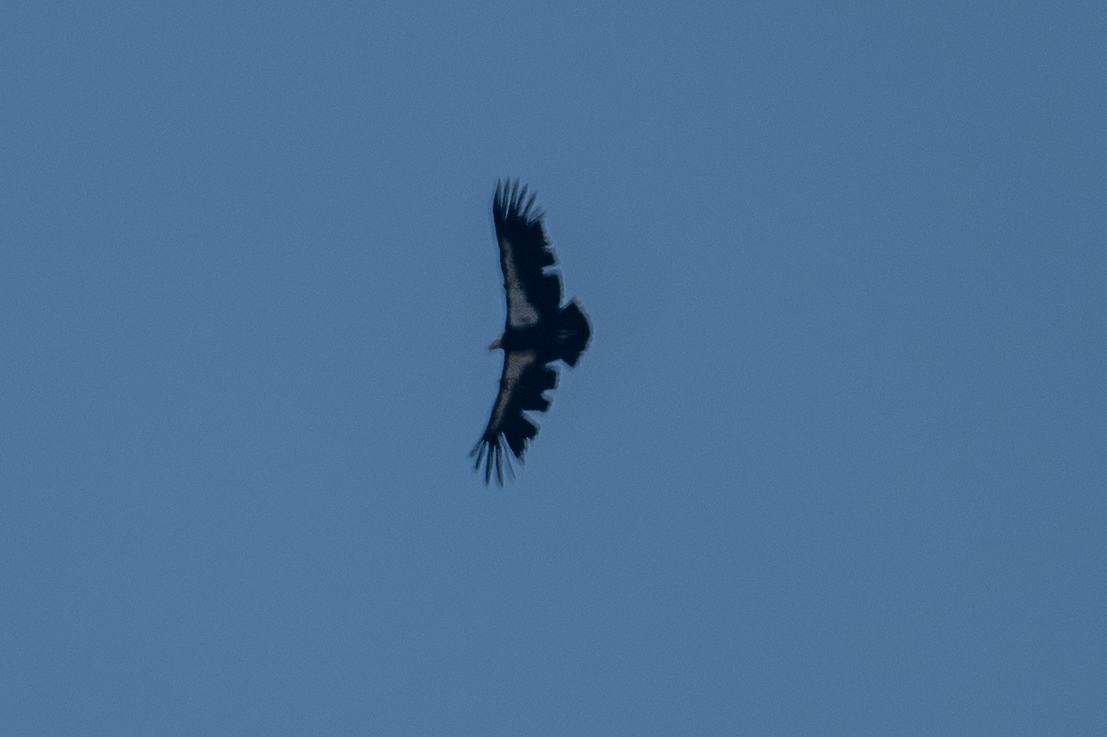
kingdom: Animalia
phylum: Chordata
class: Aves
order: Accipitriformes
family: Cathartidae
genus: Gymnogyps
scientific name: Gymnogyps californianus
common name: California condor
